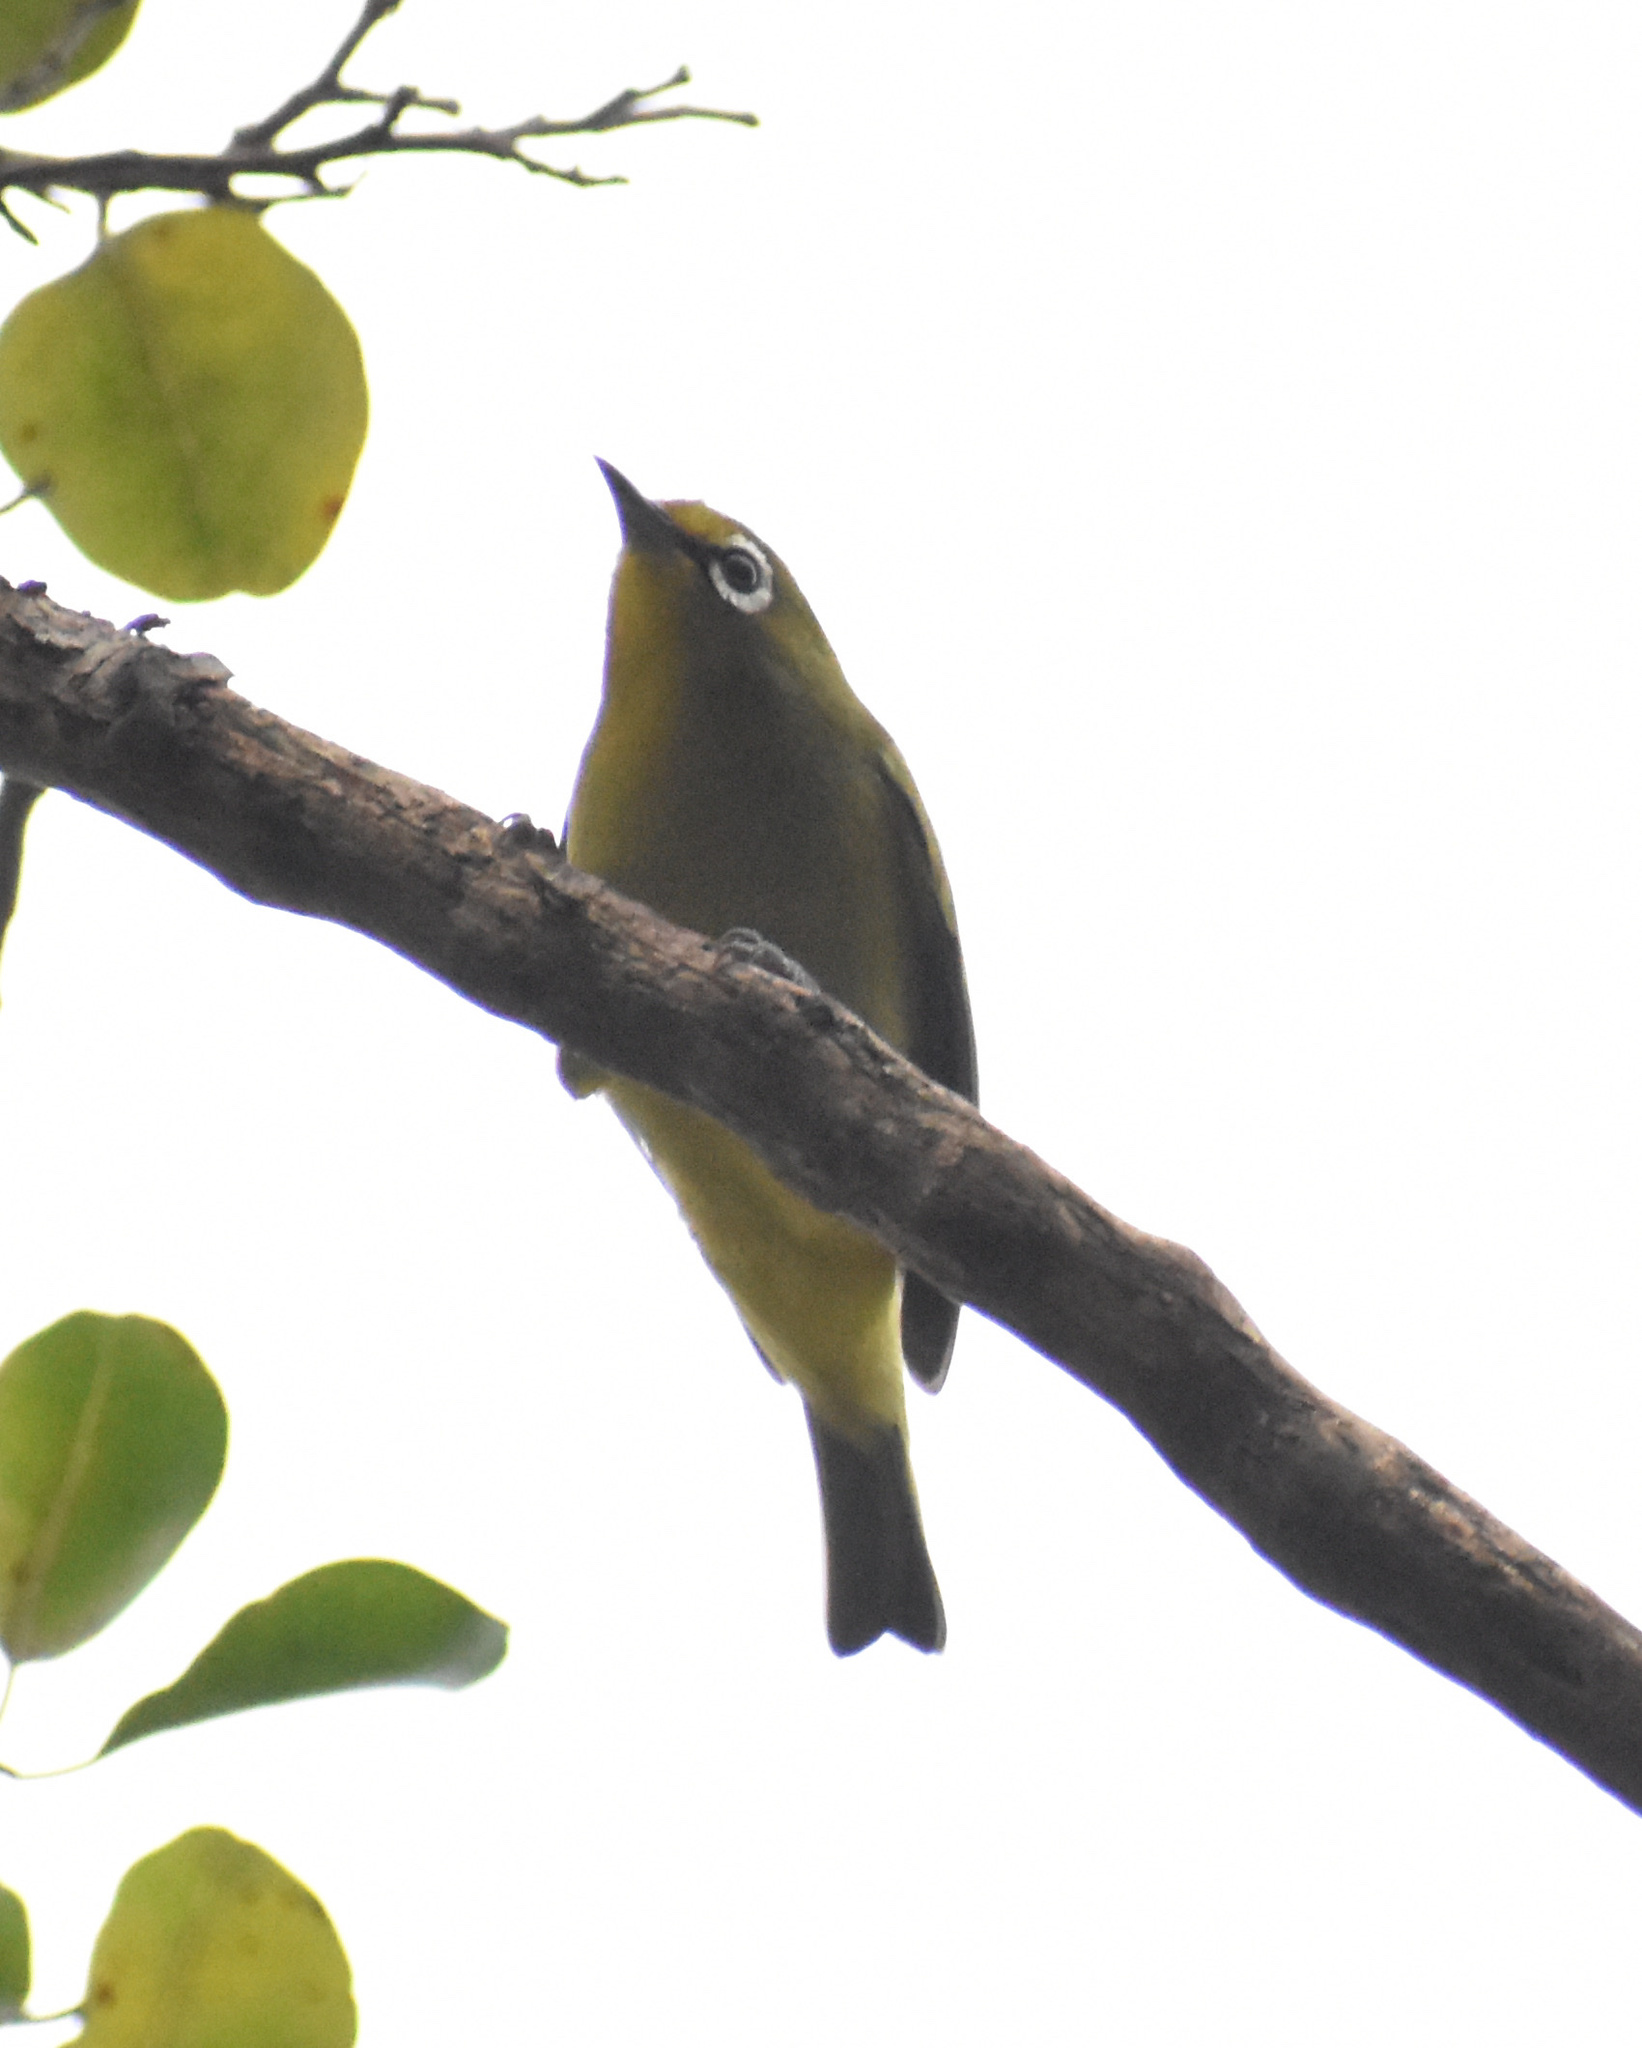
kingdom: Animalia
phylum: Chordata
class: Aves
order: Passeriformes
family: Zosteropidae
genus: Zosterops
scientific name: Zosterops virens
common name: Cape white-eye
